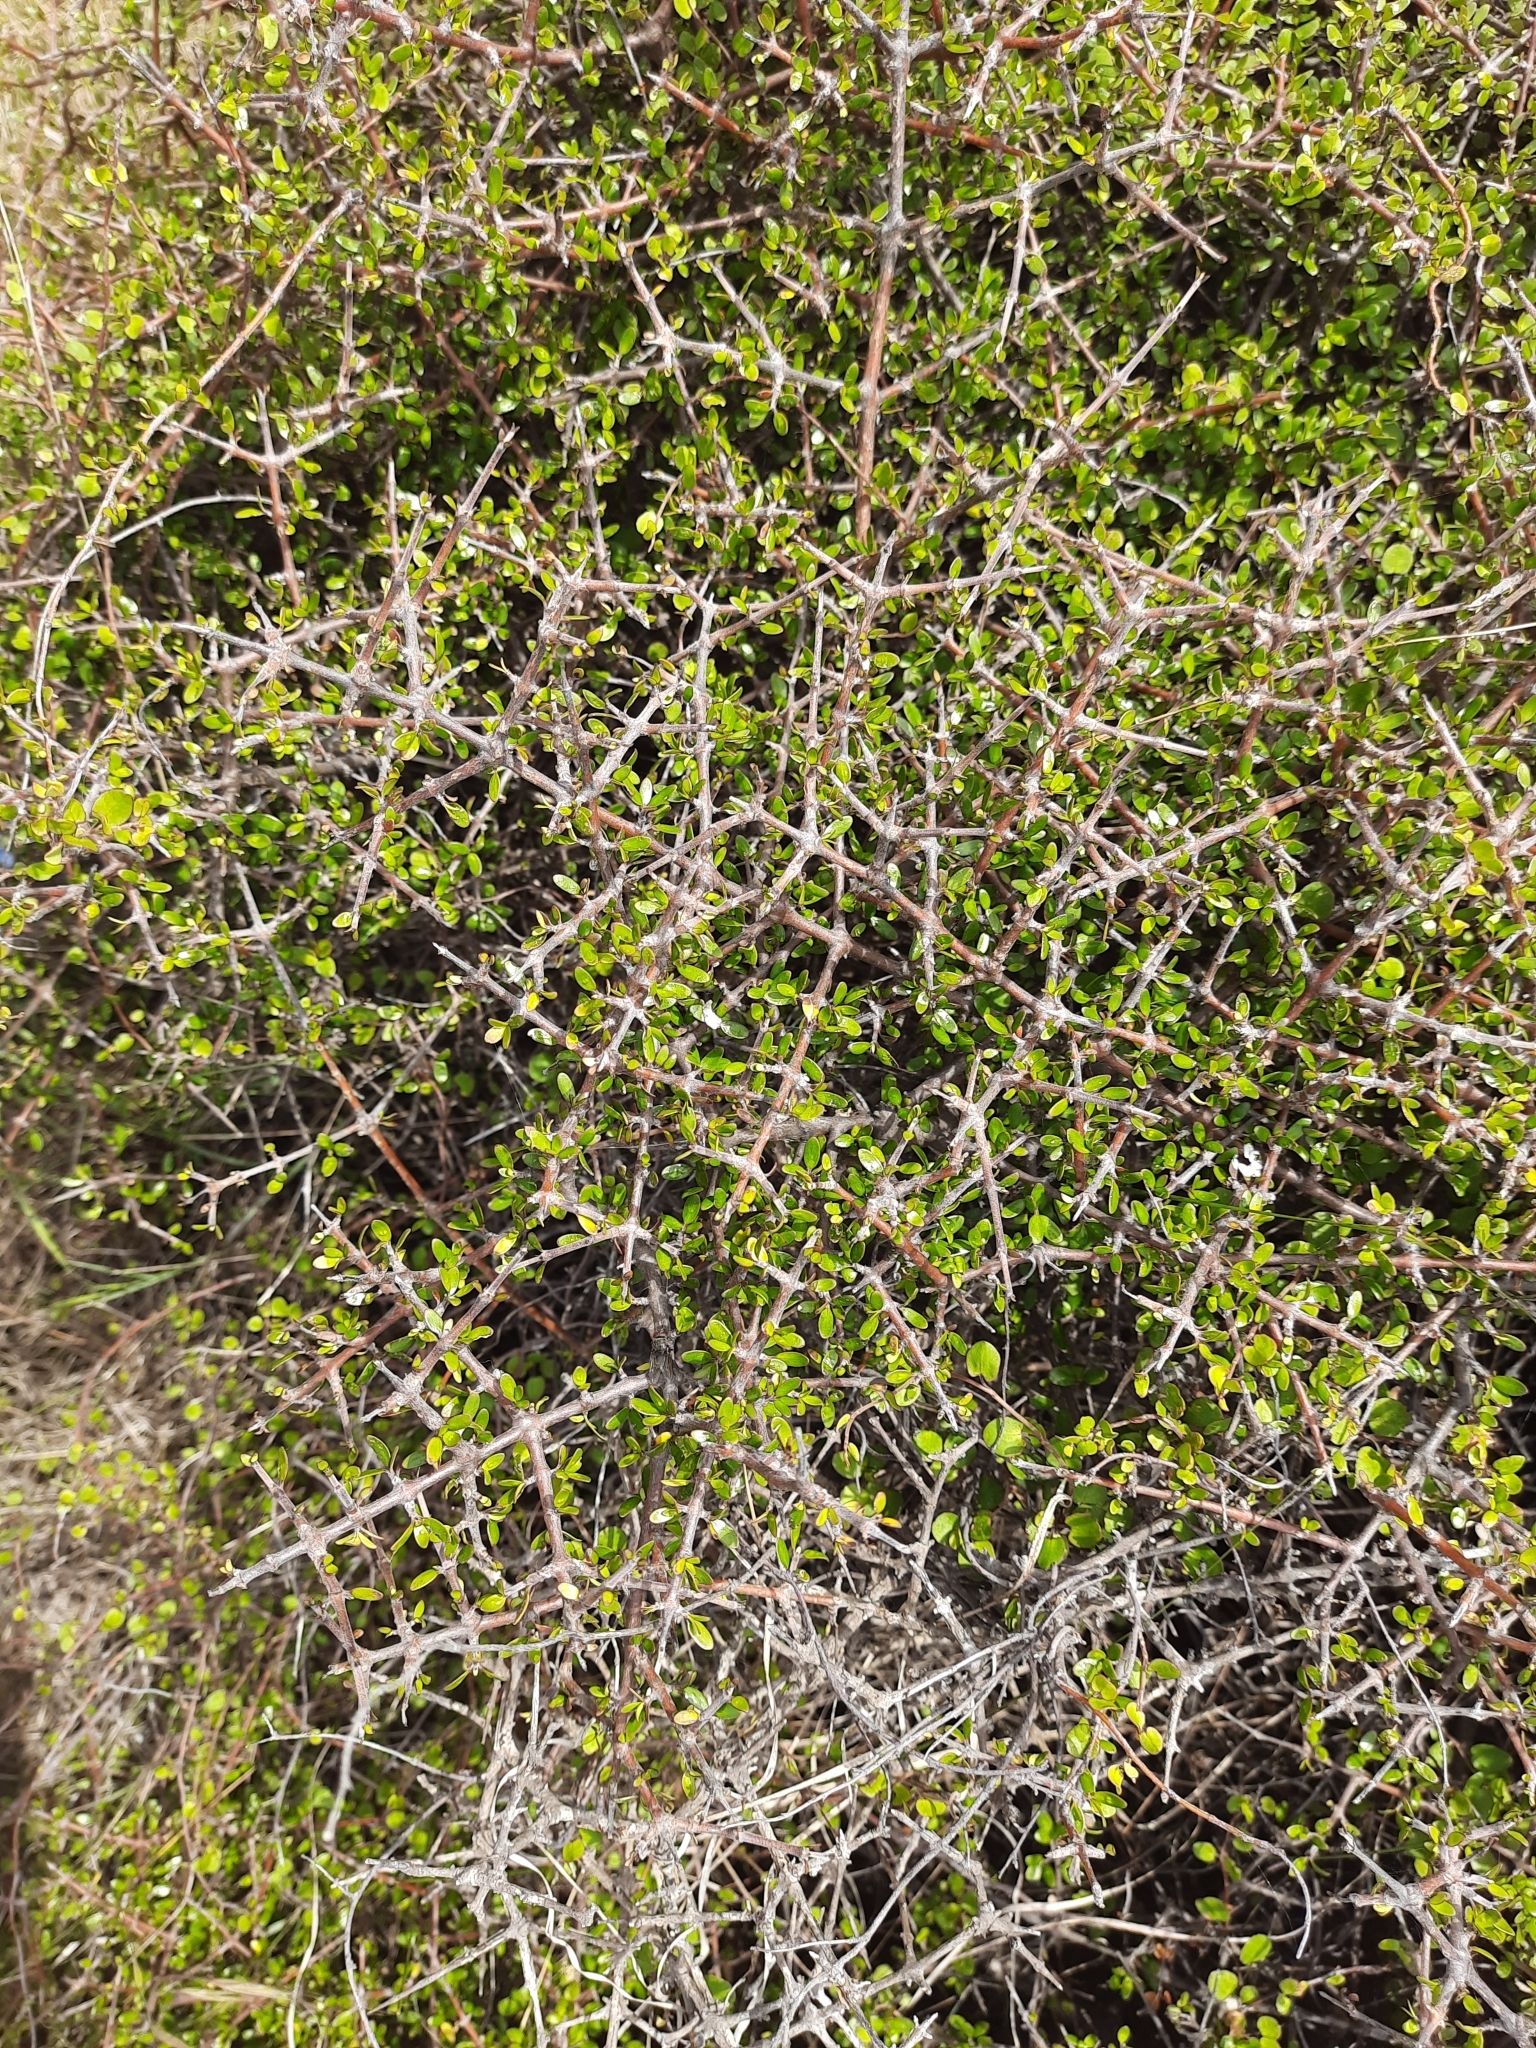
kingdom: Plantae
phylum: Tracheophyta
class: Magnoliopsida
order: Gentianales
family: Rubiaceae
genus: Coprosma
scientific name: Coprosma propinqua
